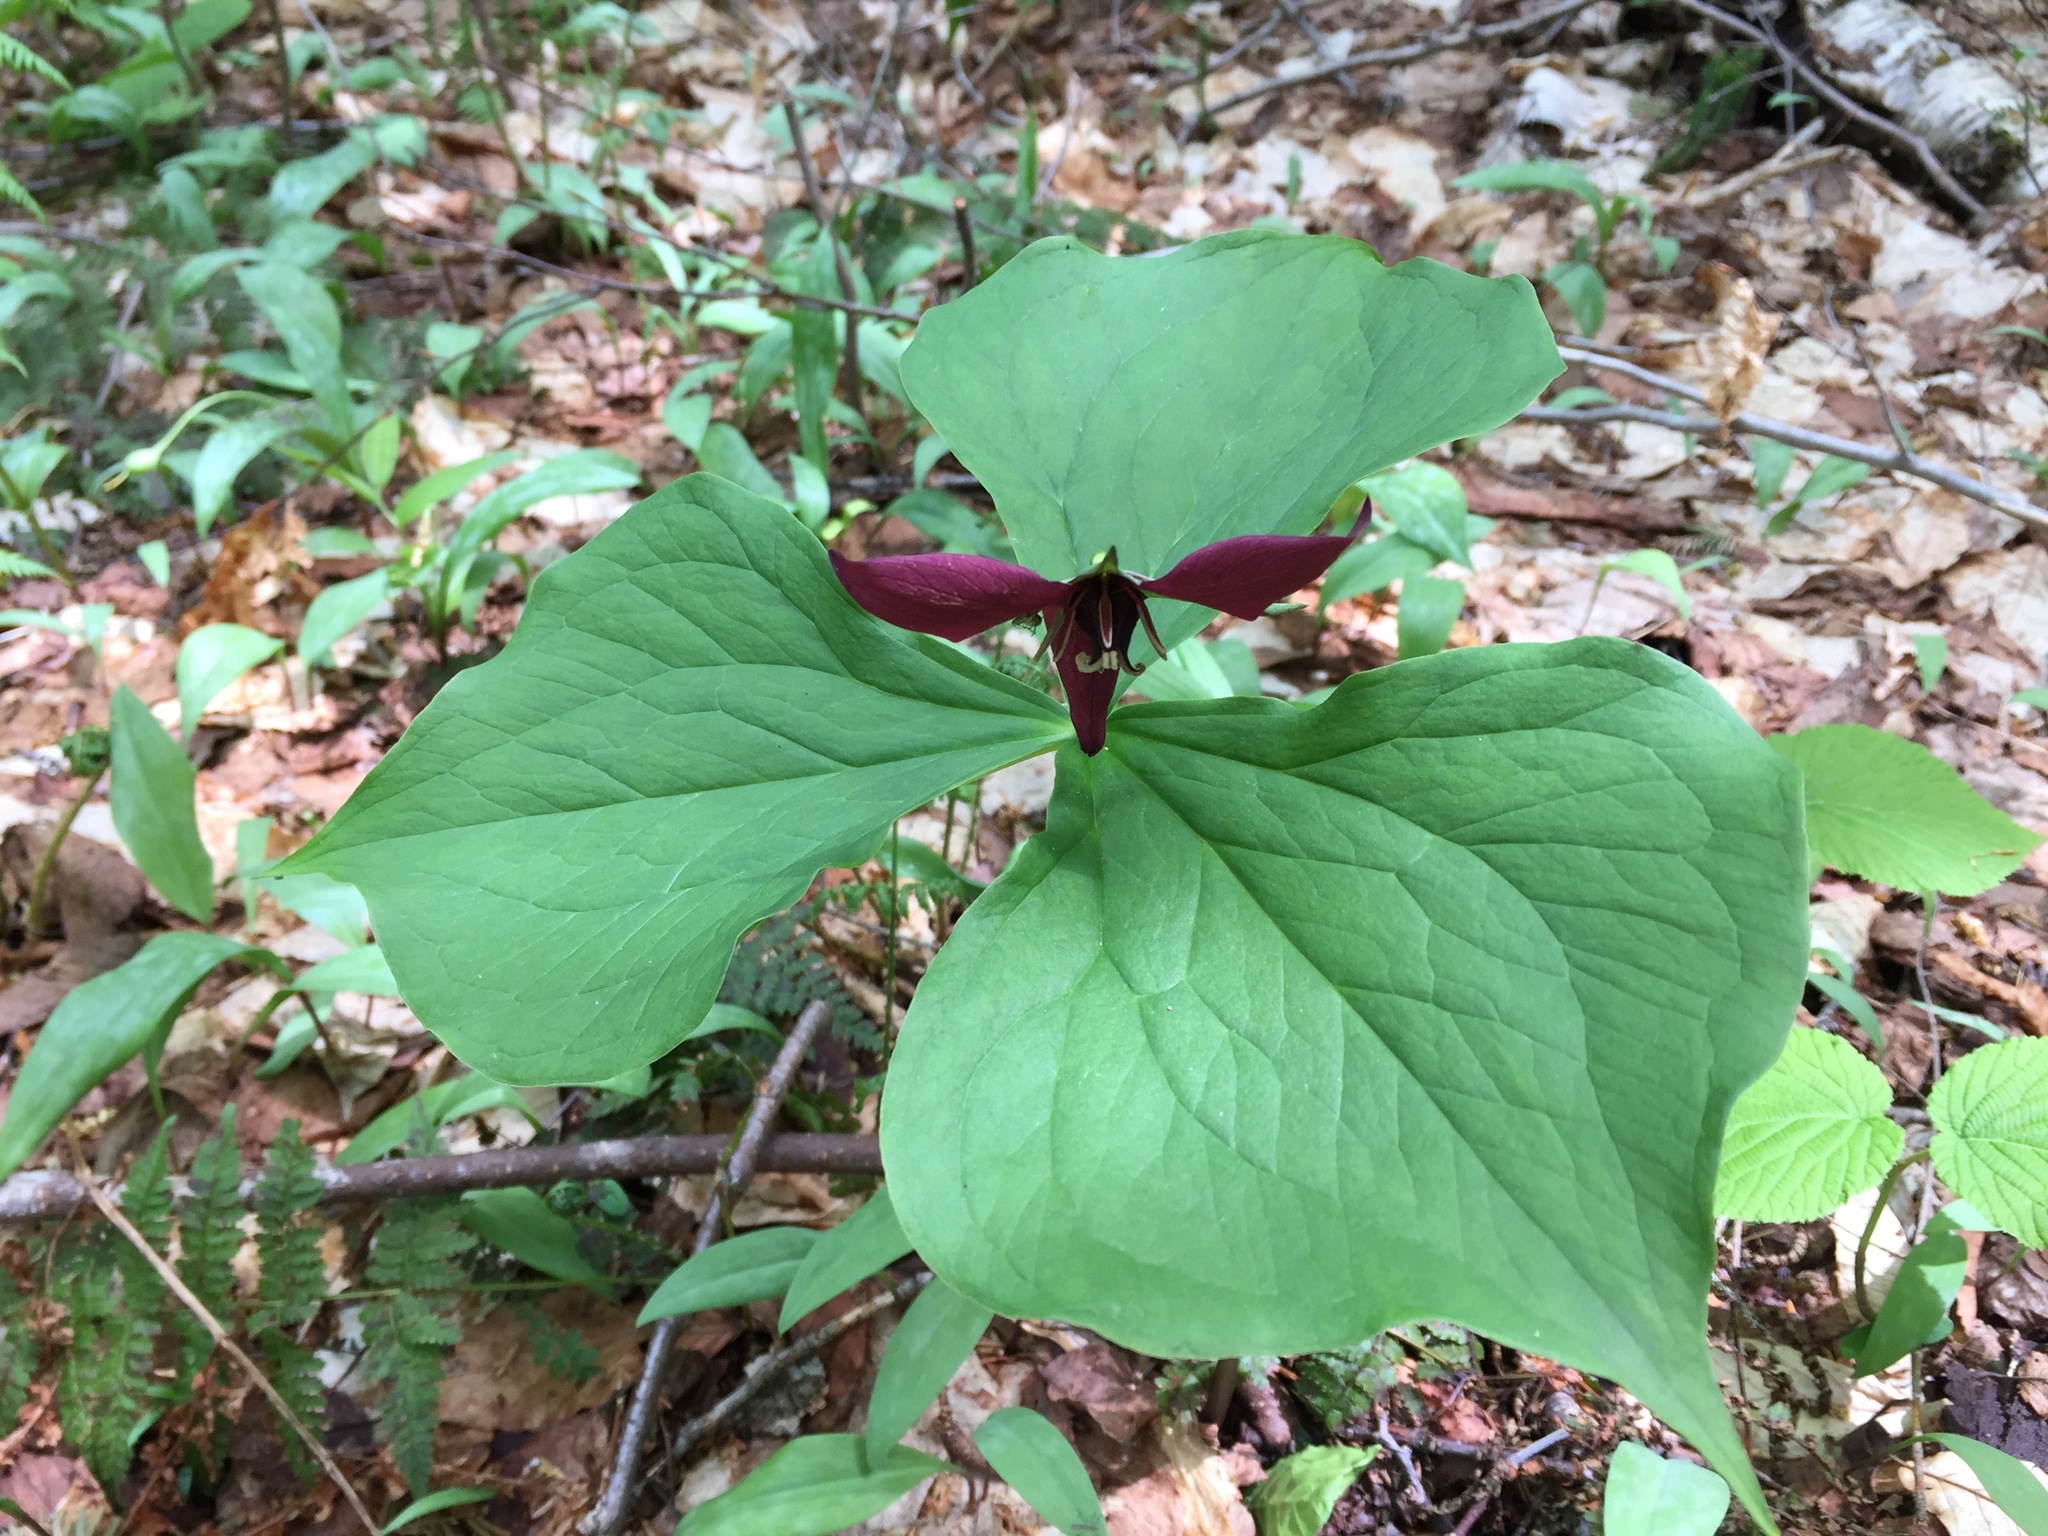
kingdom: Plantae
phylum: Tracheophyta
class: Liliopsida
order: Liliales
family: Melanthiaceae
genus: Trillium
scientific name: Trillium erectum
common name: Purple trillium
